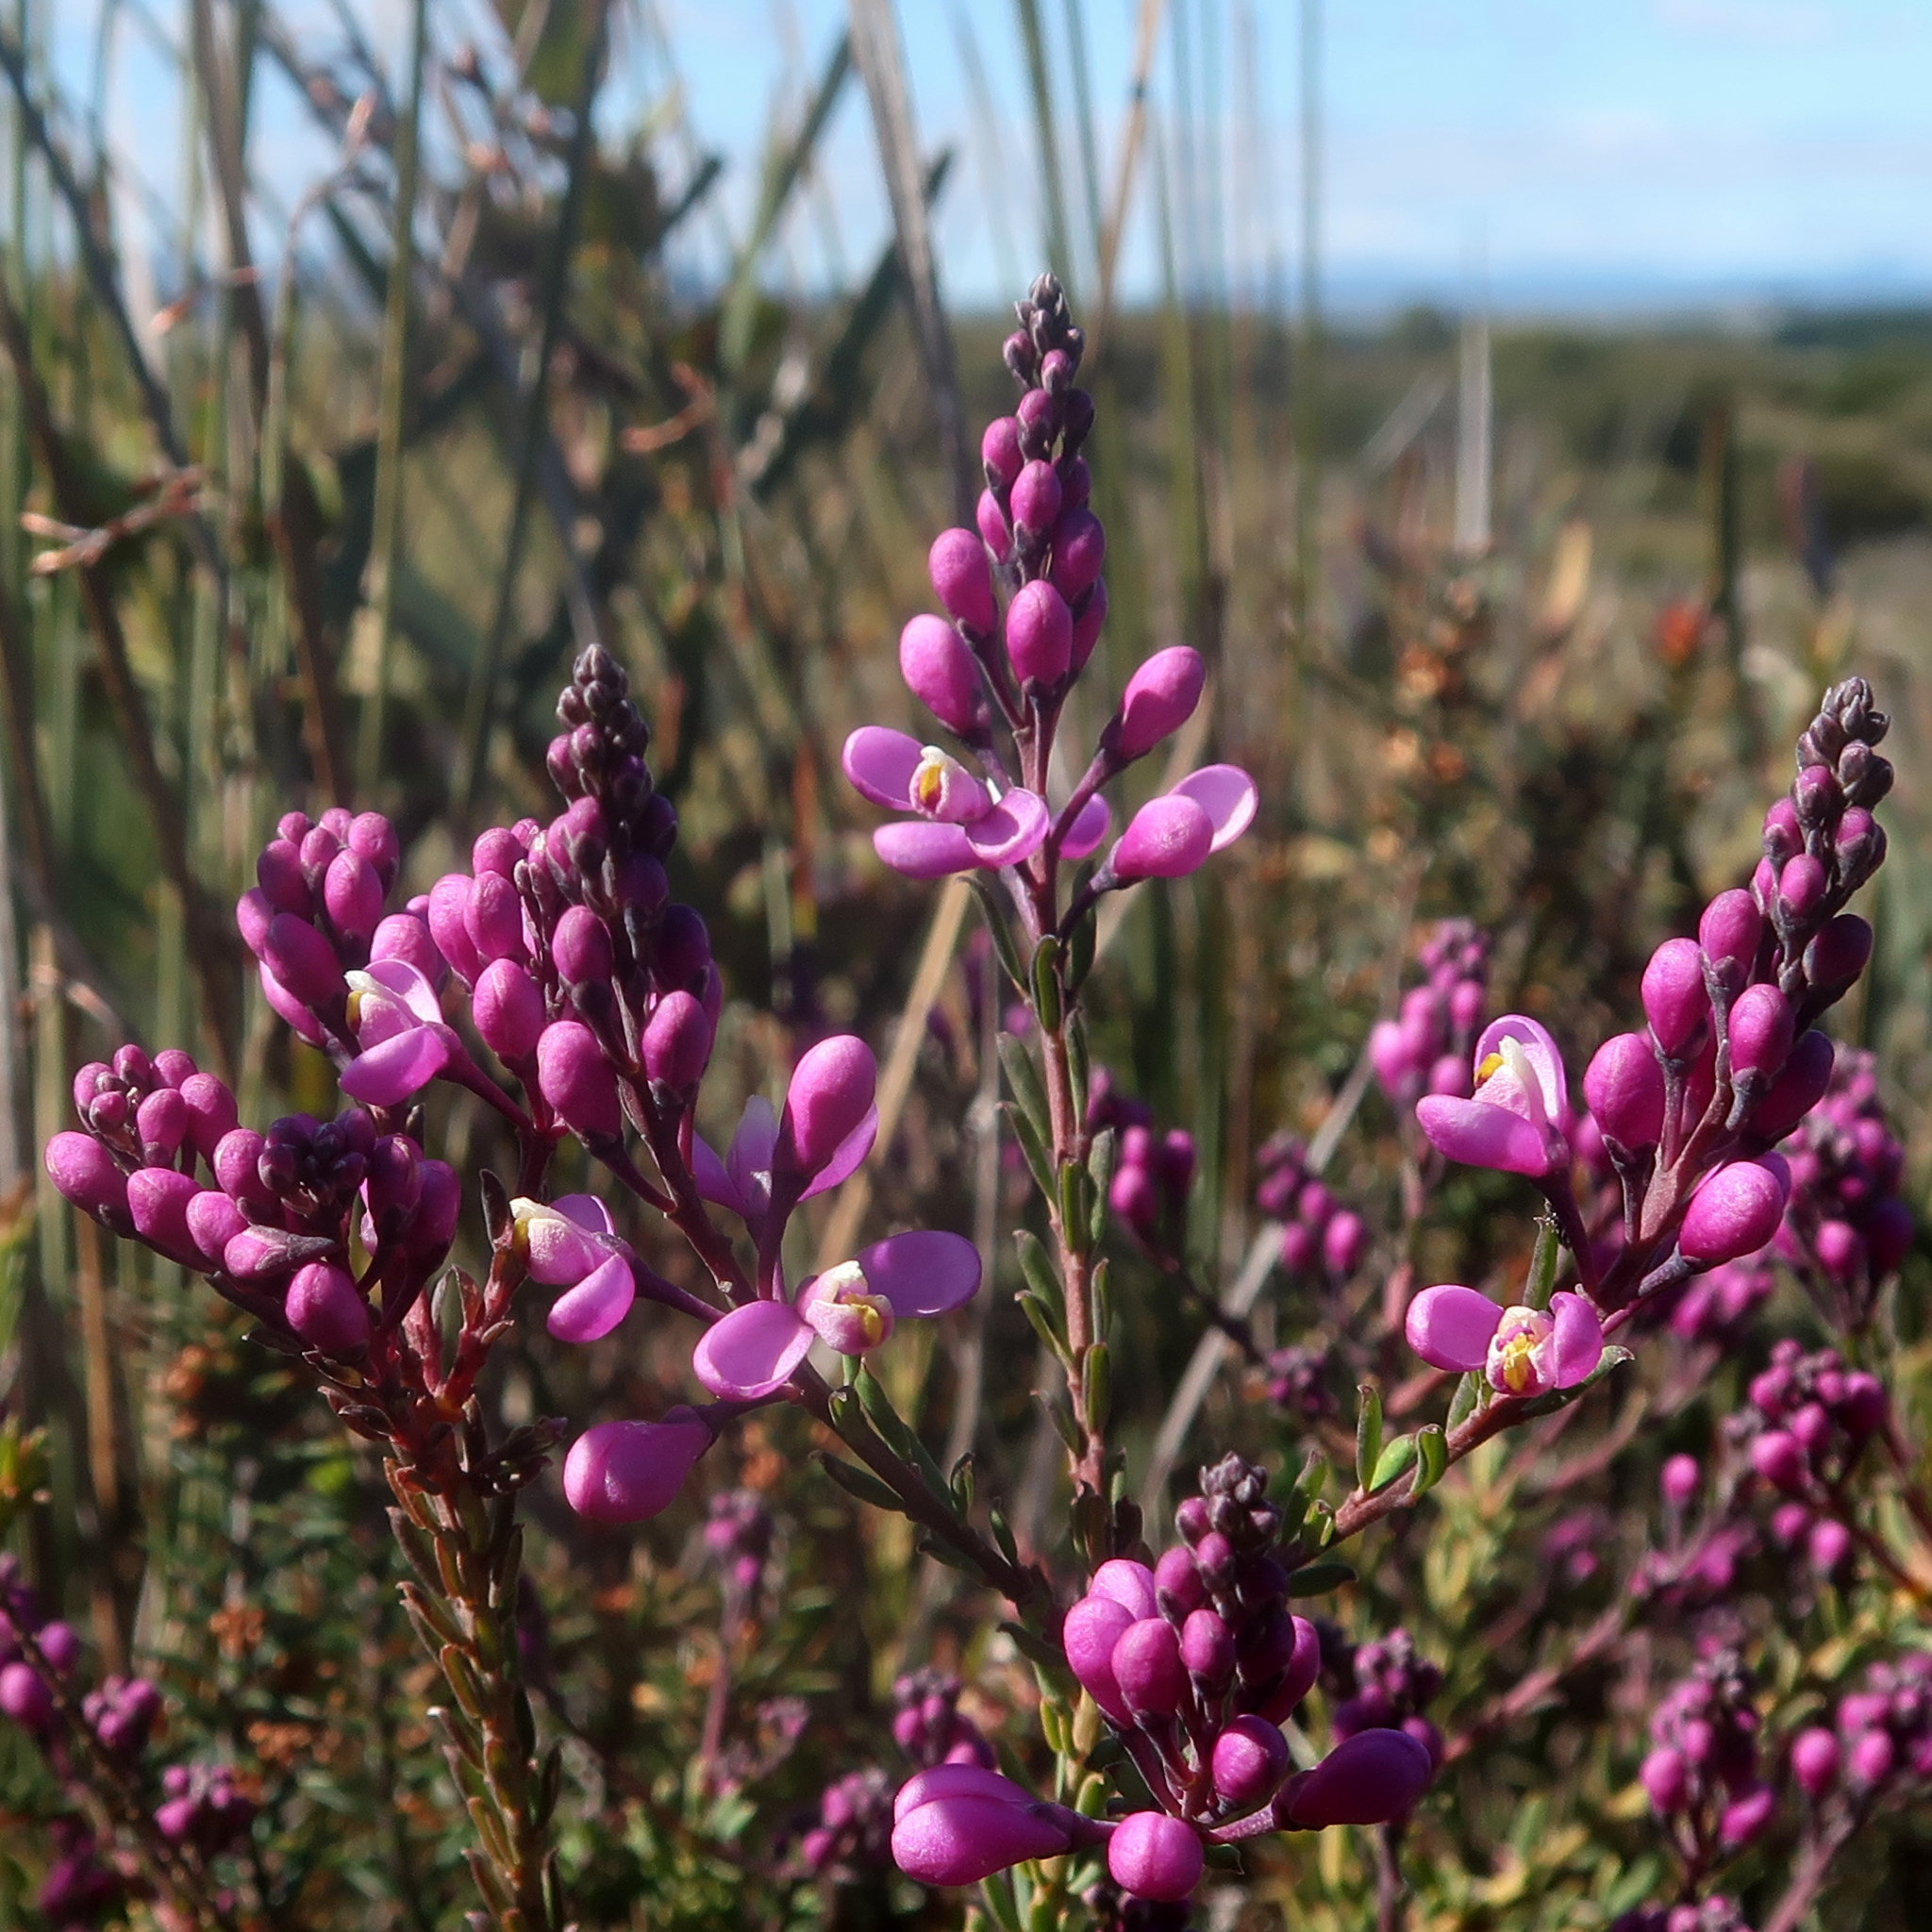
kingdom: Plantae
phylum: Tracheophyta
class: Magnoliopsida
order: Fabales
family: Polygalaceae
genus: Comesperma
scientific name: Comesperma ericinum
